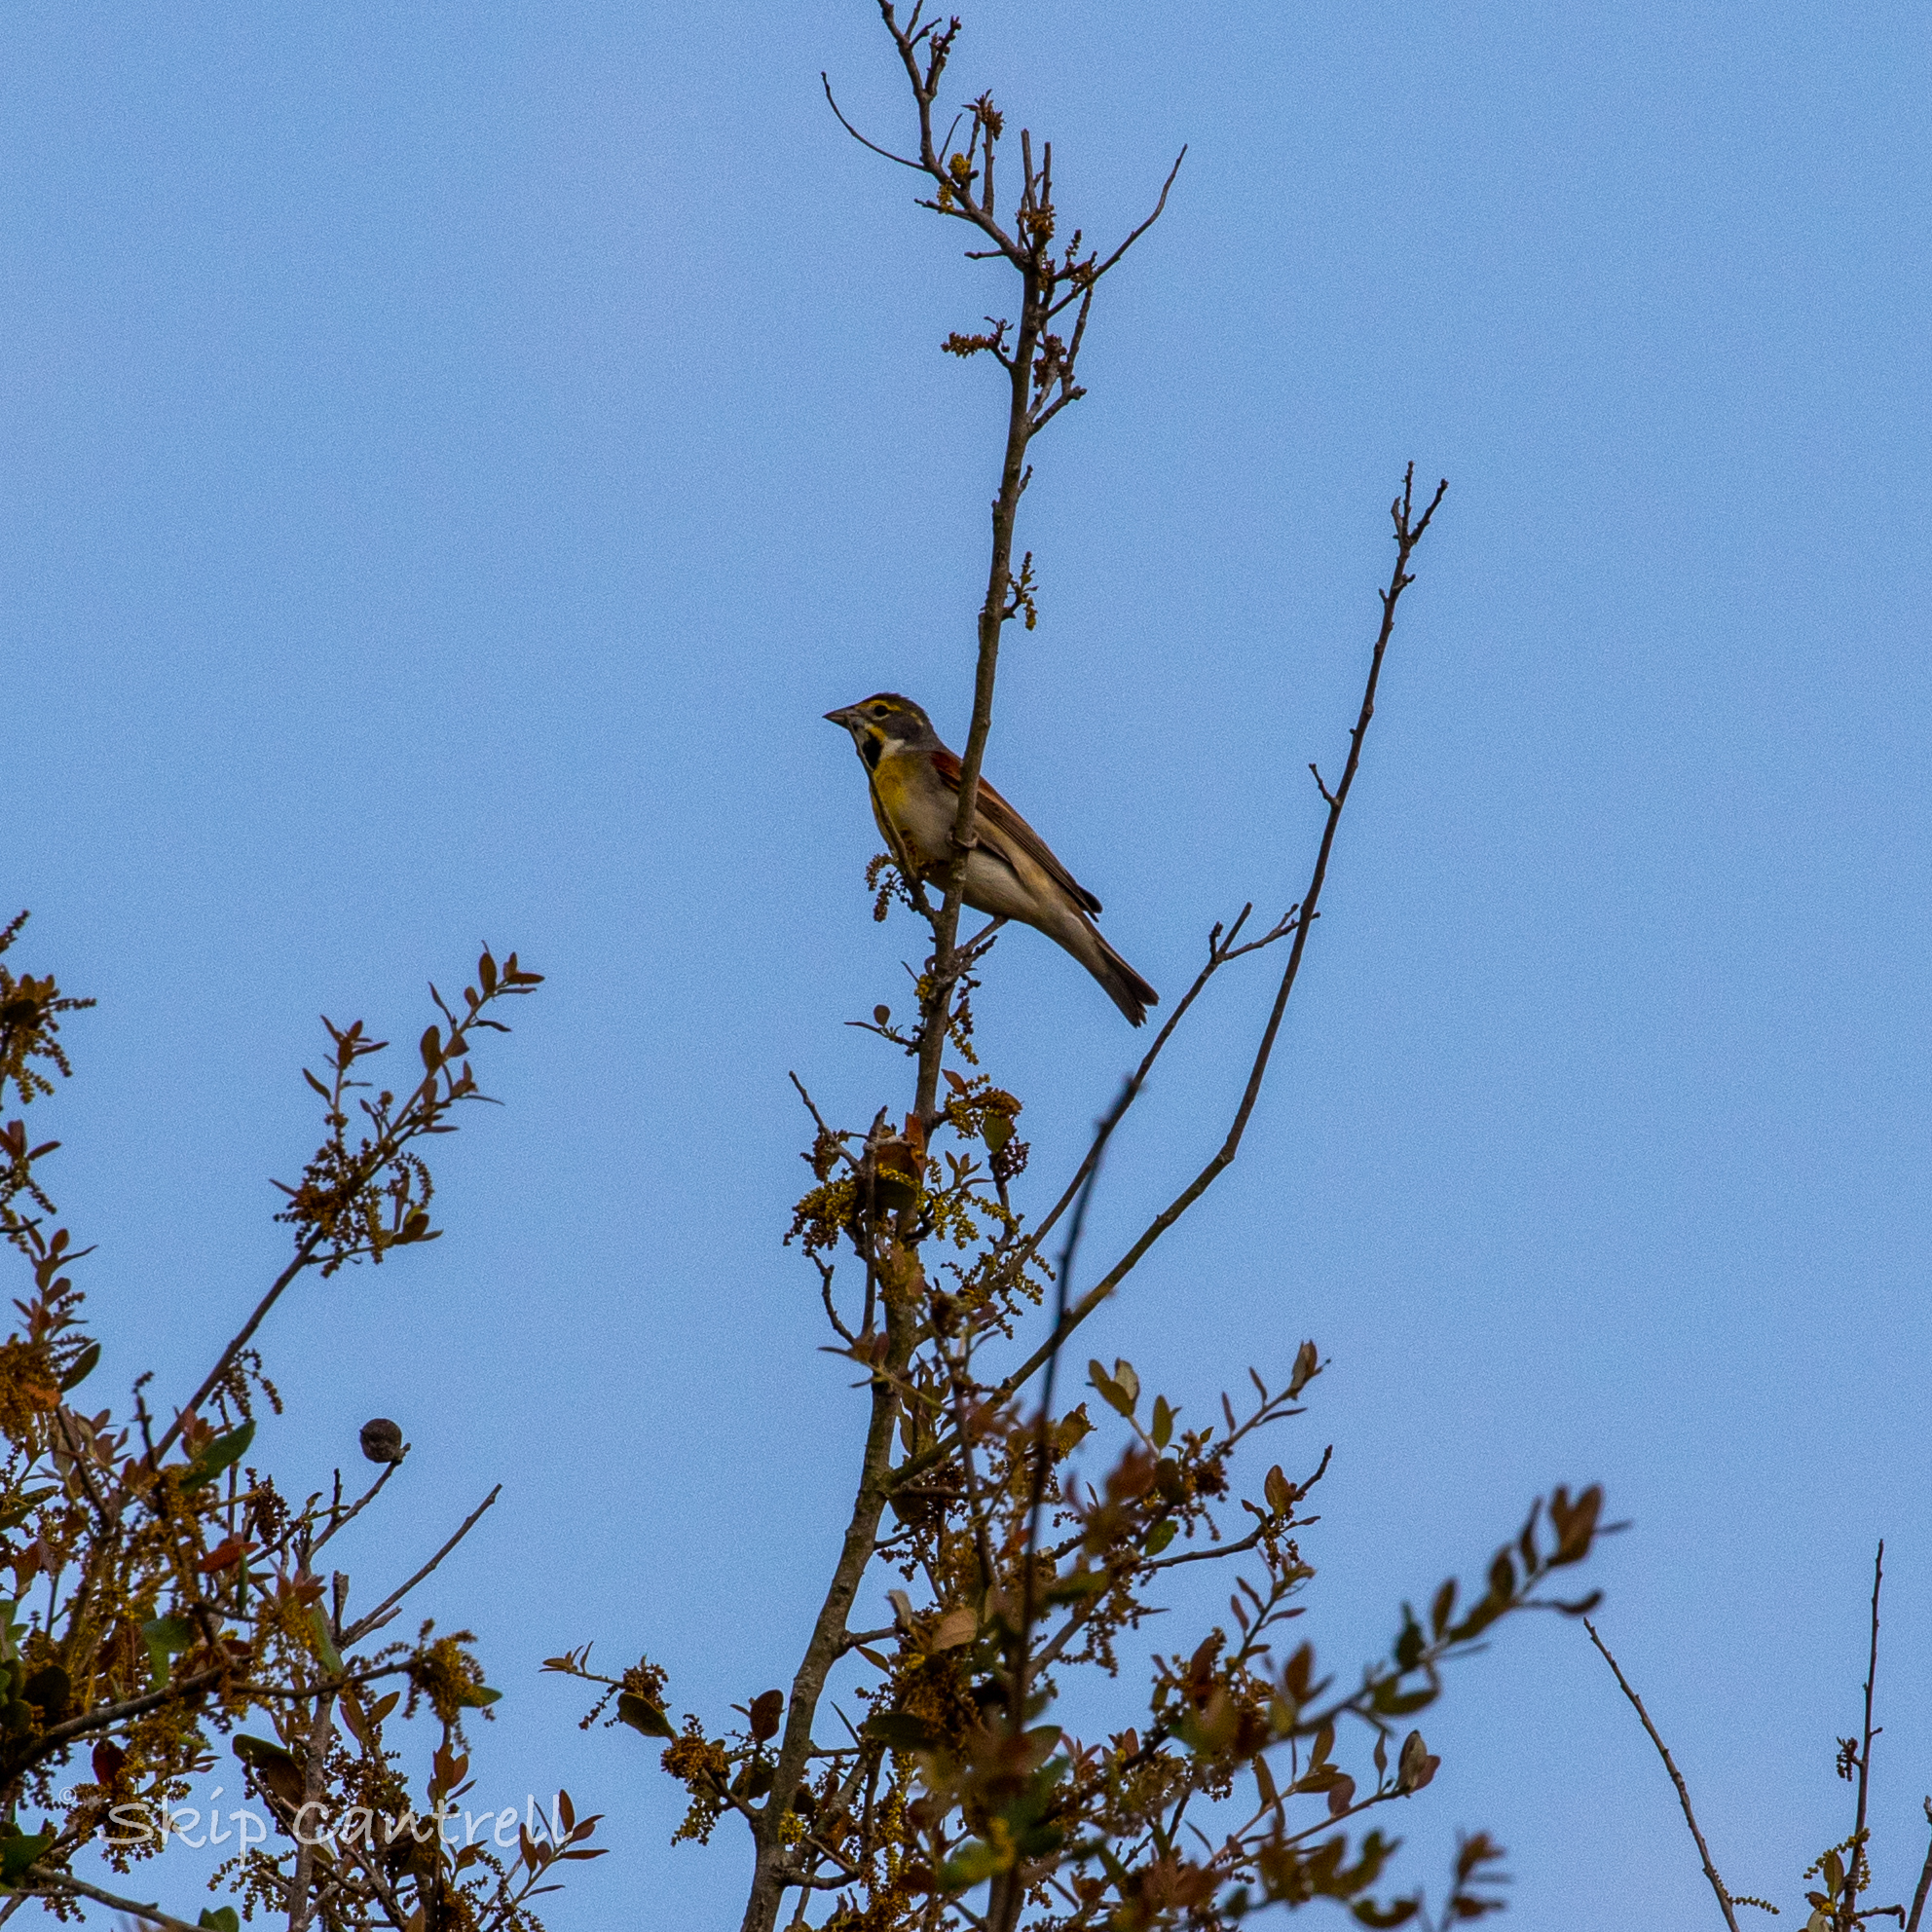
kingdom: Animalia
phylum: Chordata
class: Aves
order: Passeriformes
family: Cardinalidae
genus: Spiza
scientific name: Spiza americana
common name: Dickcissel
